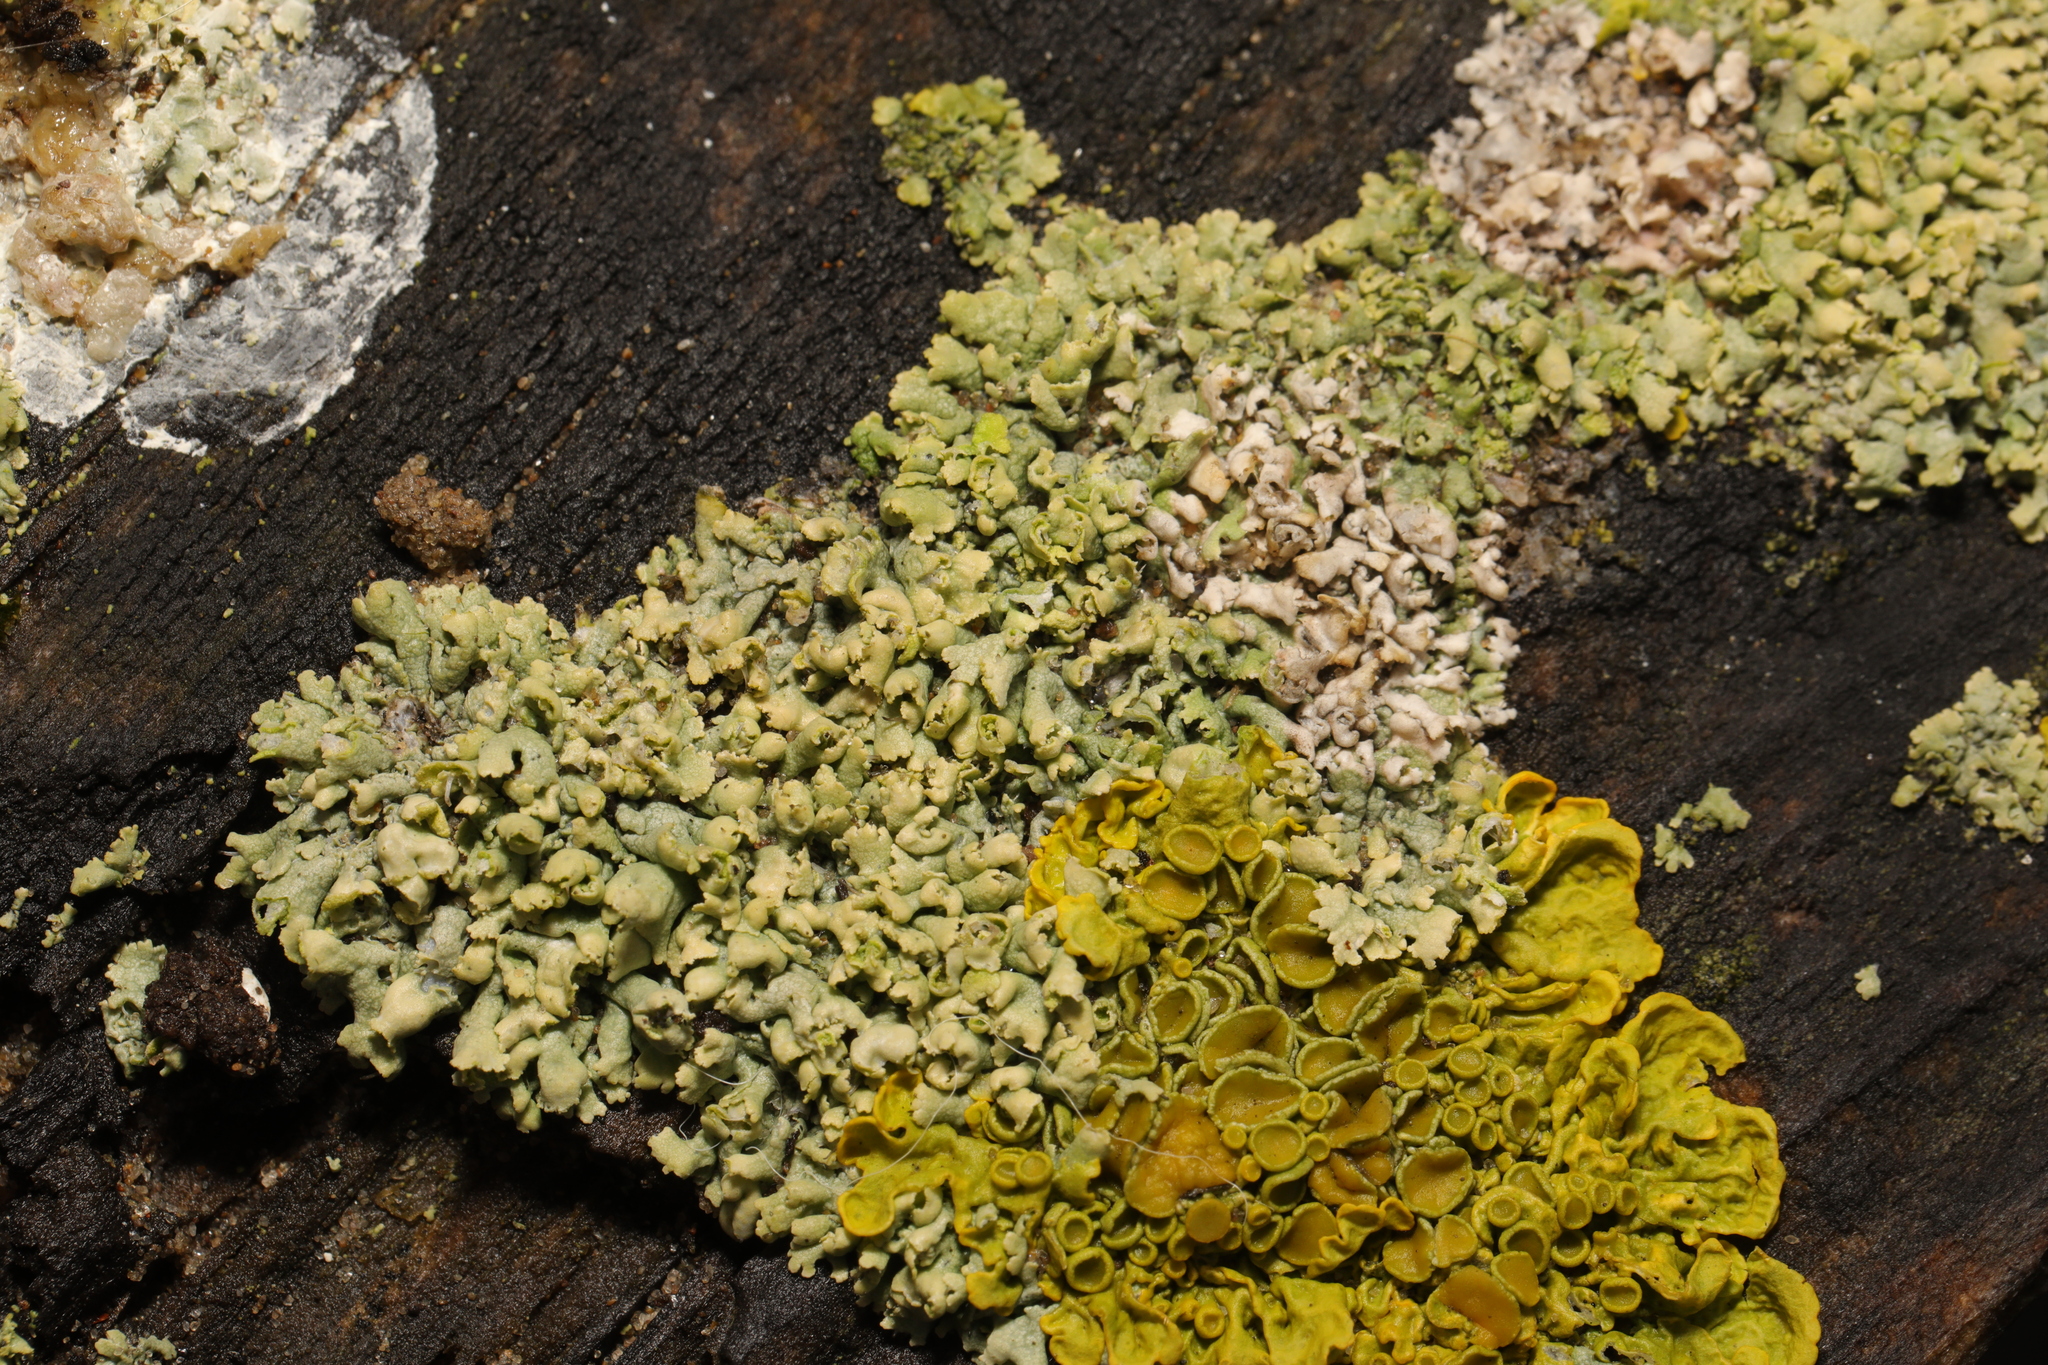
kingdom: Fungi
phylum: Ascomycota
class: Lecanoromycetes
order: Caliciales
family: Physciaceae
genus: Physcia
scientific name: Physcia adscendens
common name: Hooded rosette lichen
